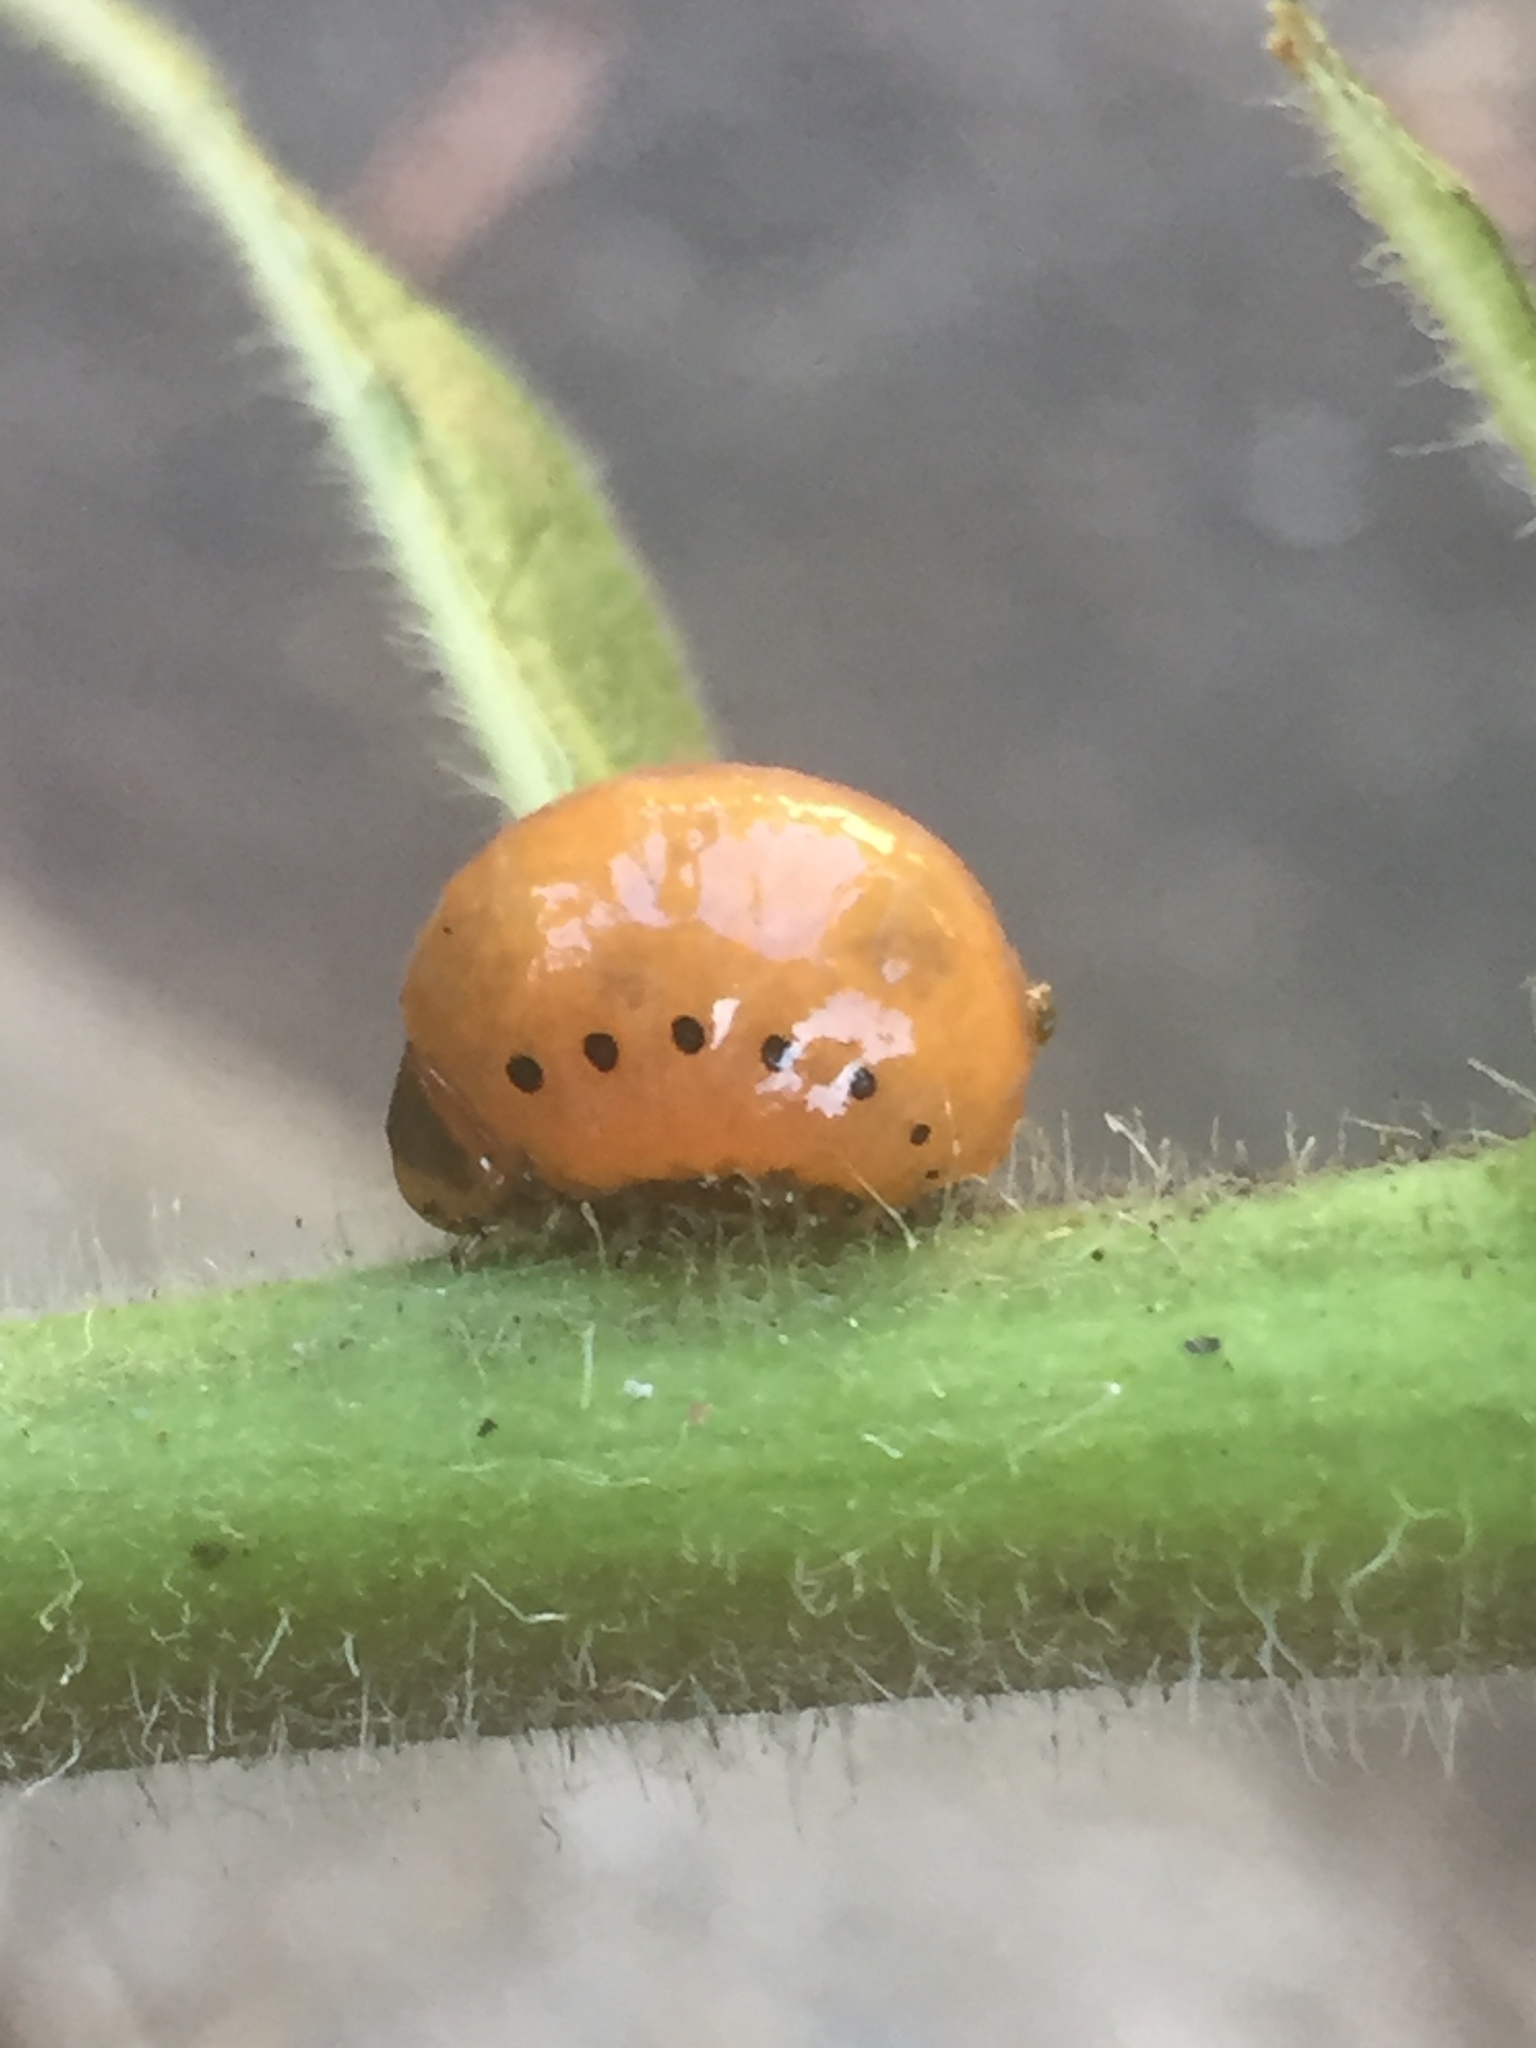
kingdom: Animalia
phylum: Arthropoda
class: Insecta
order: Coleoptera
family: Chrysomelidae
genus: Labidomera
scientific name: Labidomera clivicollis
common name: Swamp milkweed leaf beetle
